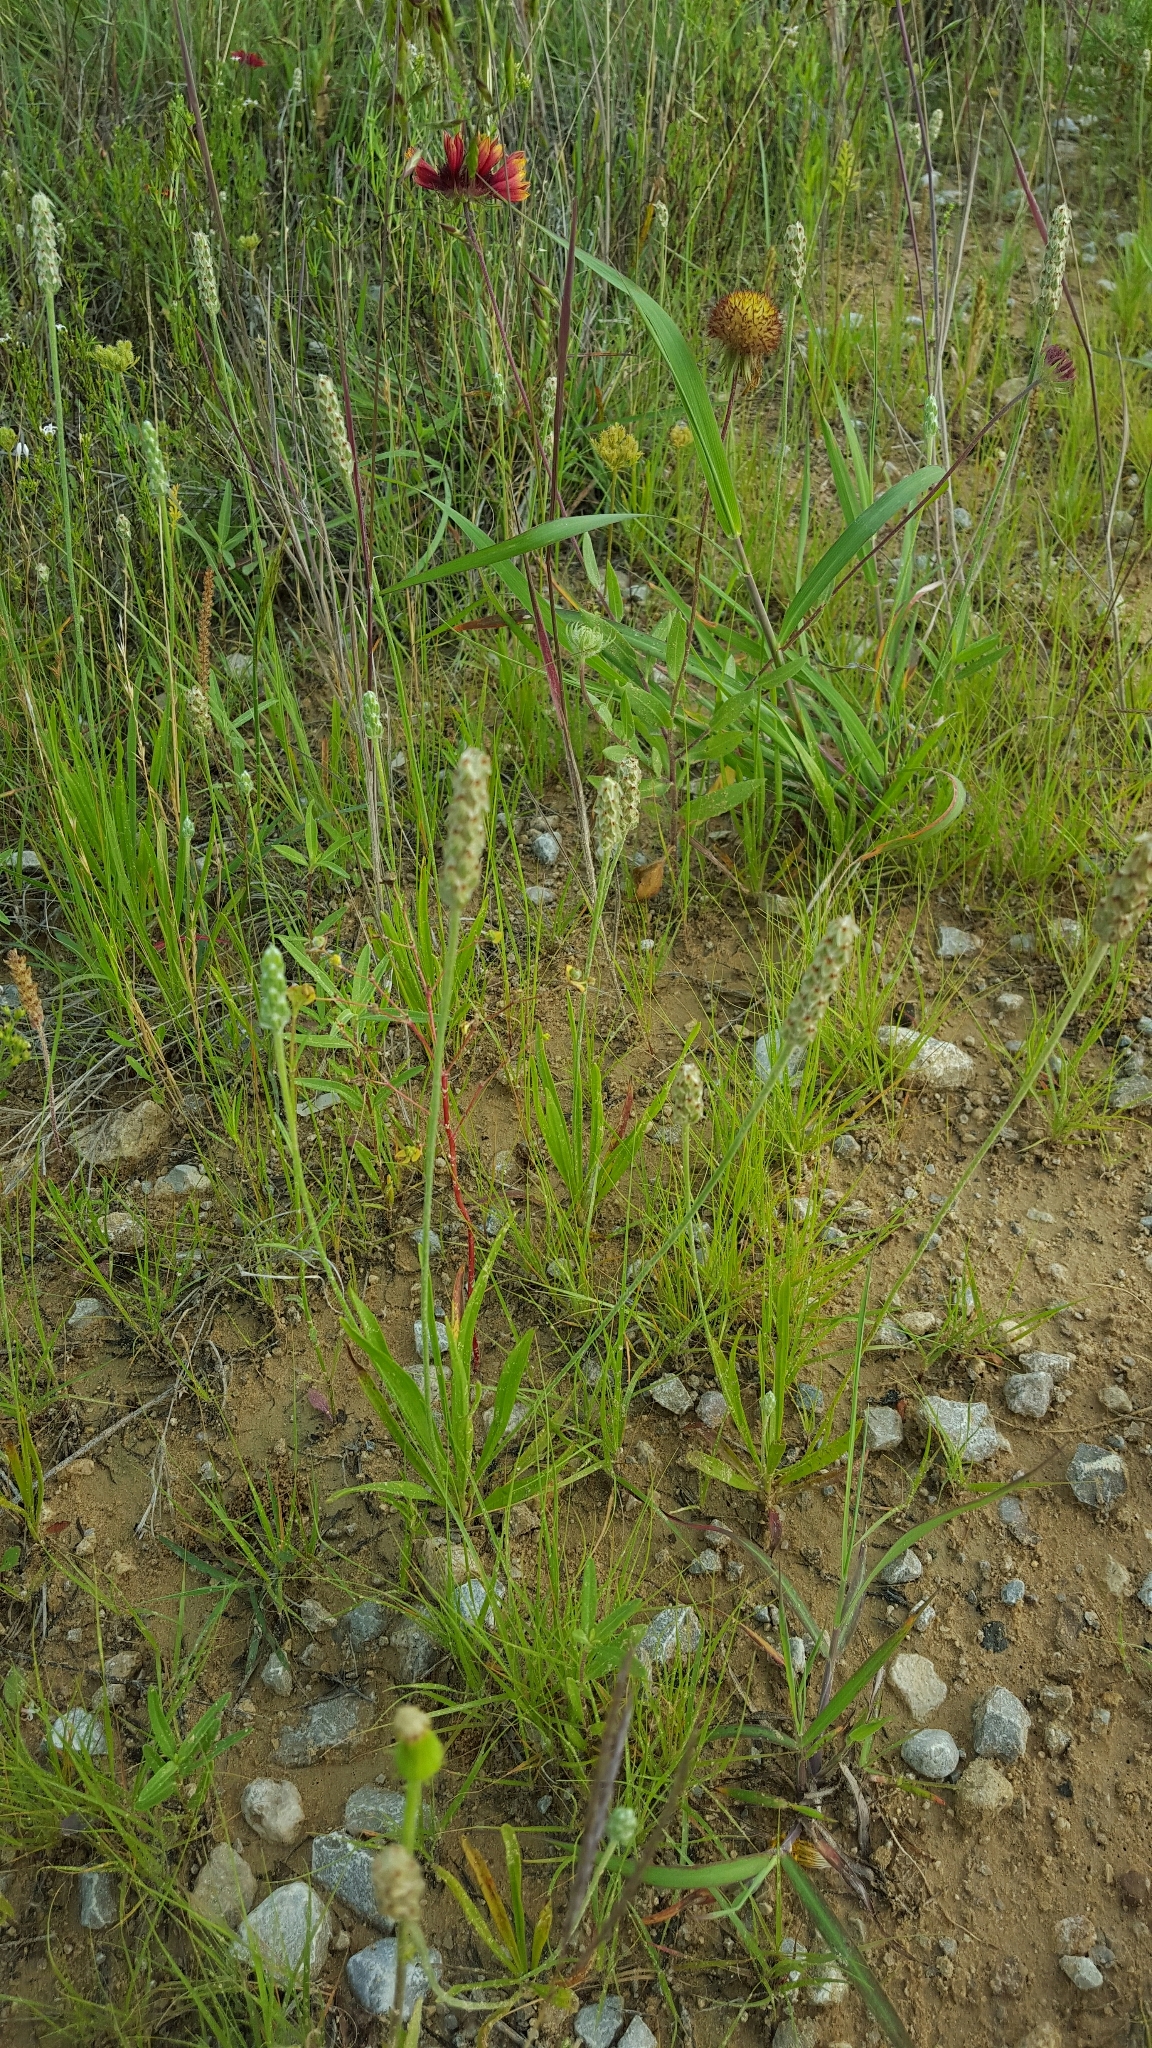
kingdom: Plantae
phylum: Tracheophyta
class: Magnoliopsida
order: Lamiales
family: Plantaginaceae
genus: Plantago
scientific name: Plantago wrightiana
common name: Wright's plantain
